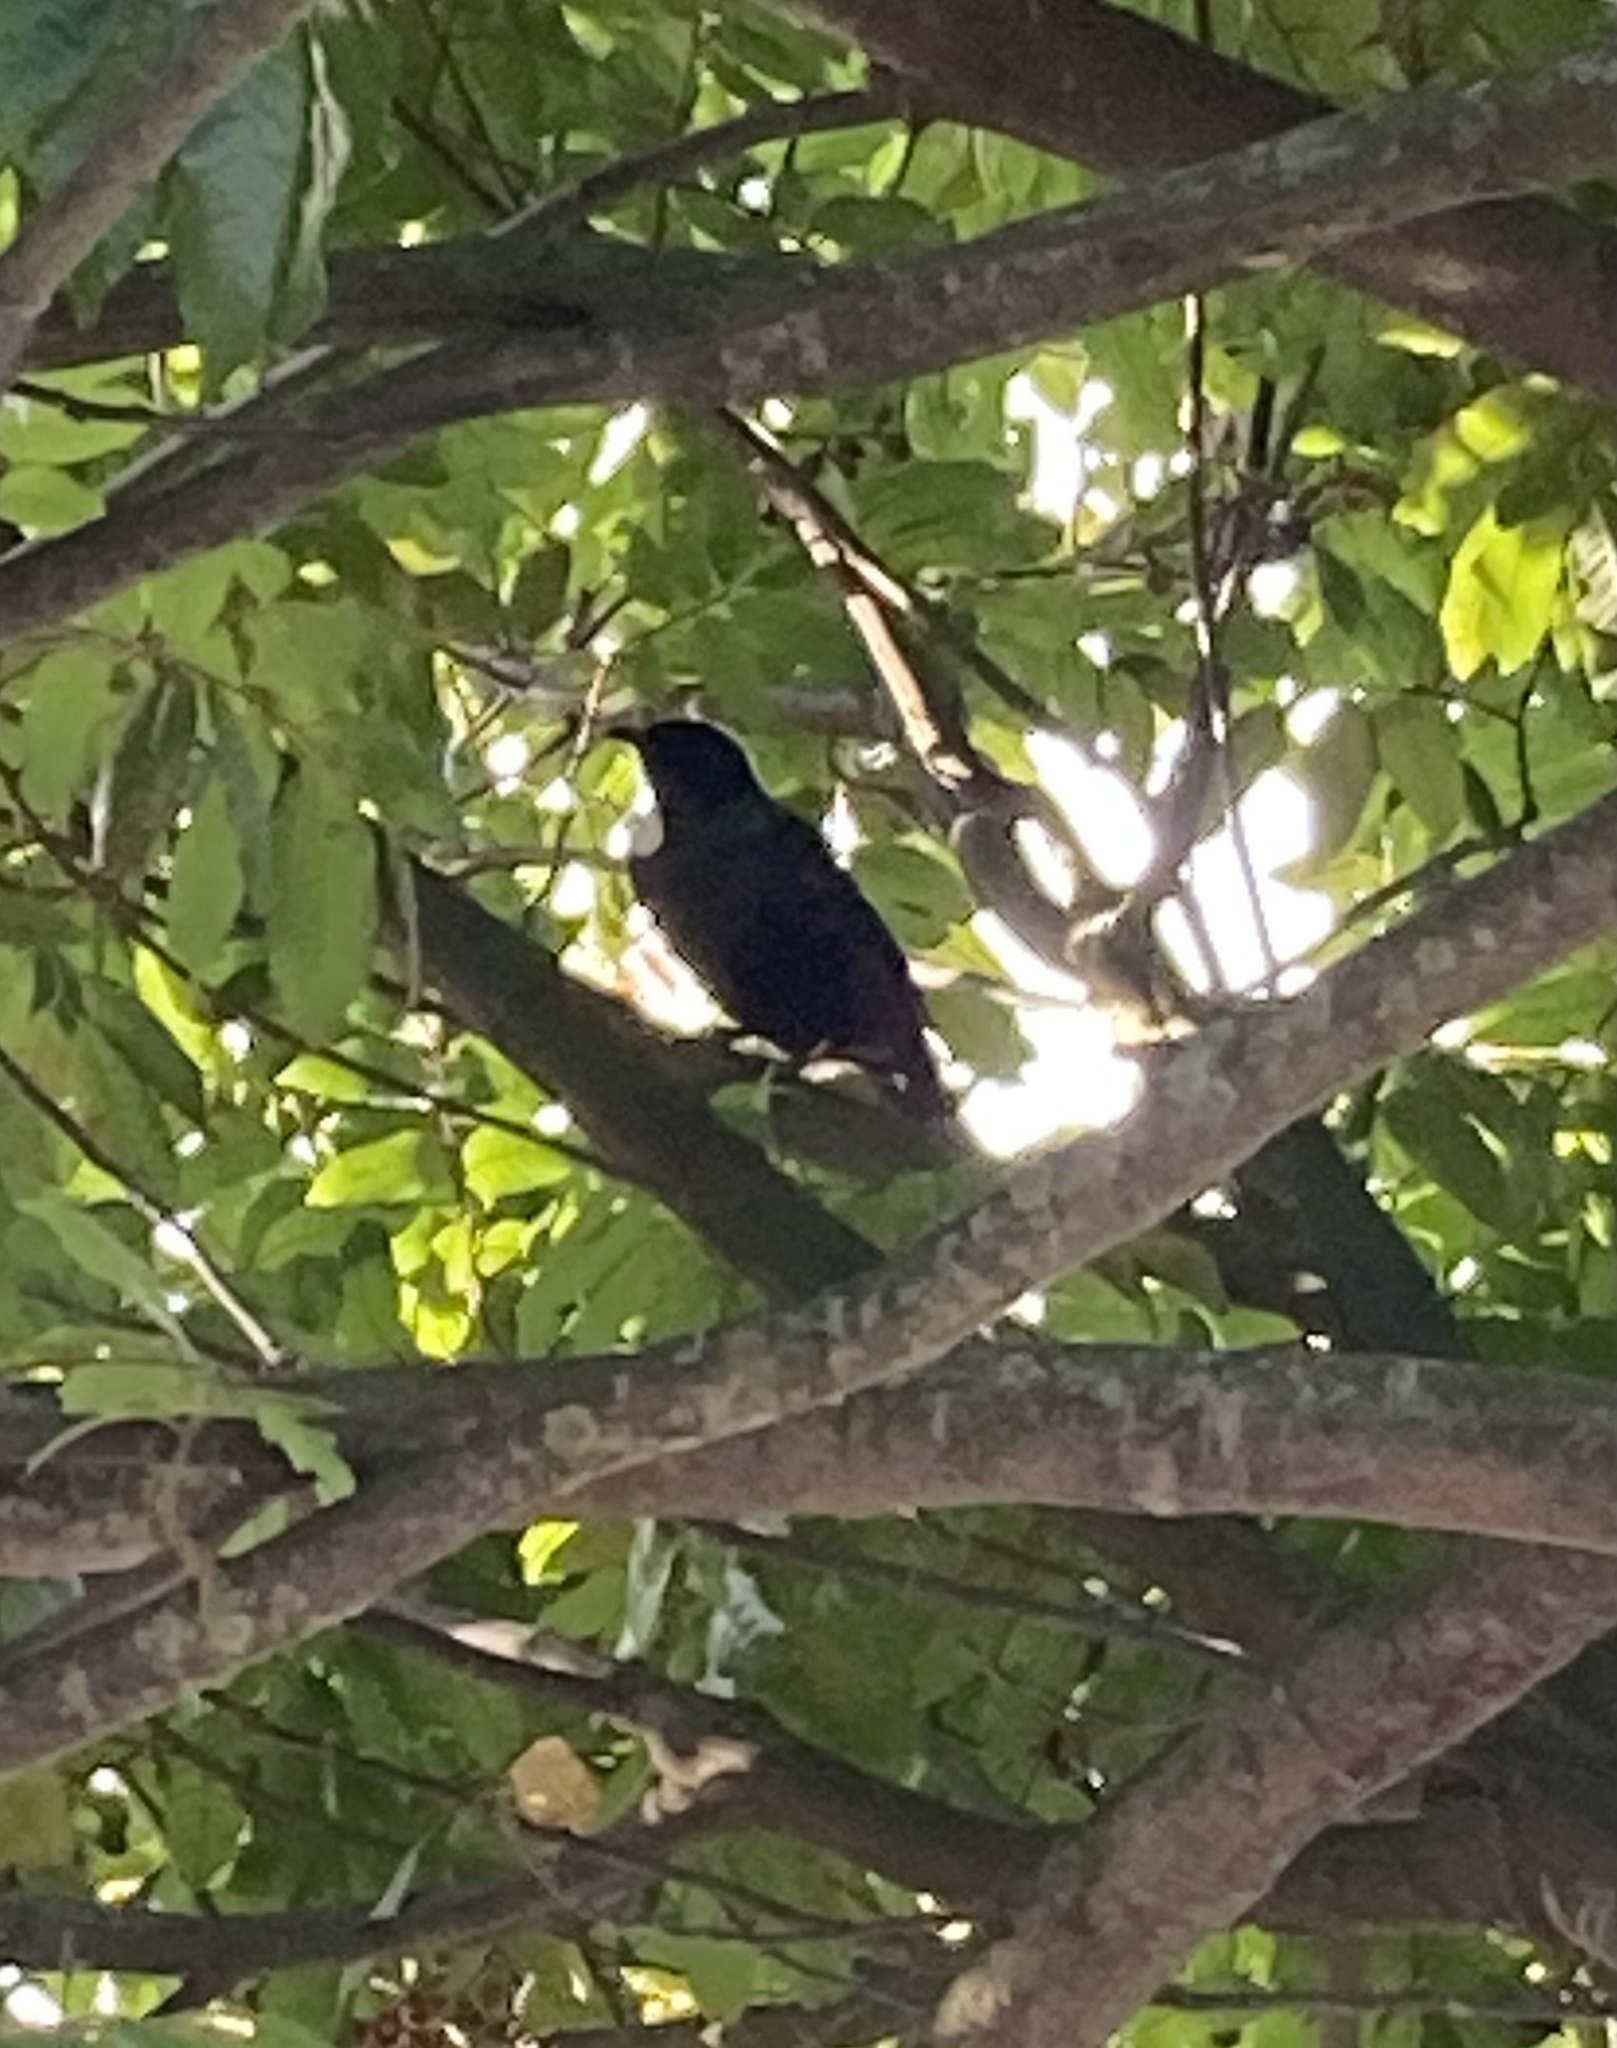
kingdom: Animalia
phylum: Chordata
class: Aves
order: Passeriformes
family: Meliphagidae
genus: Prosthemadera
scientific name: Prosthemadera novaeseelandiae
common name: Tui
